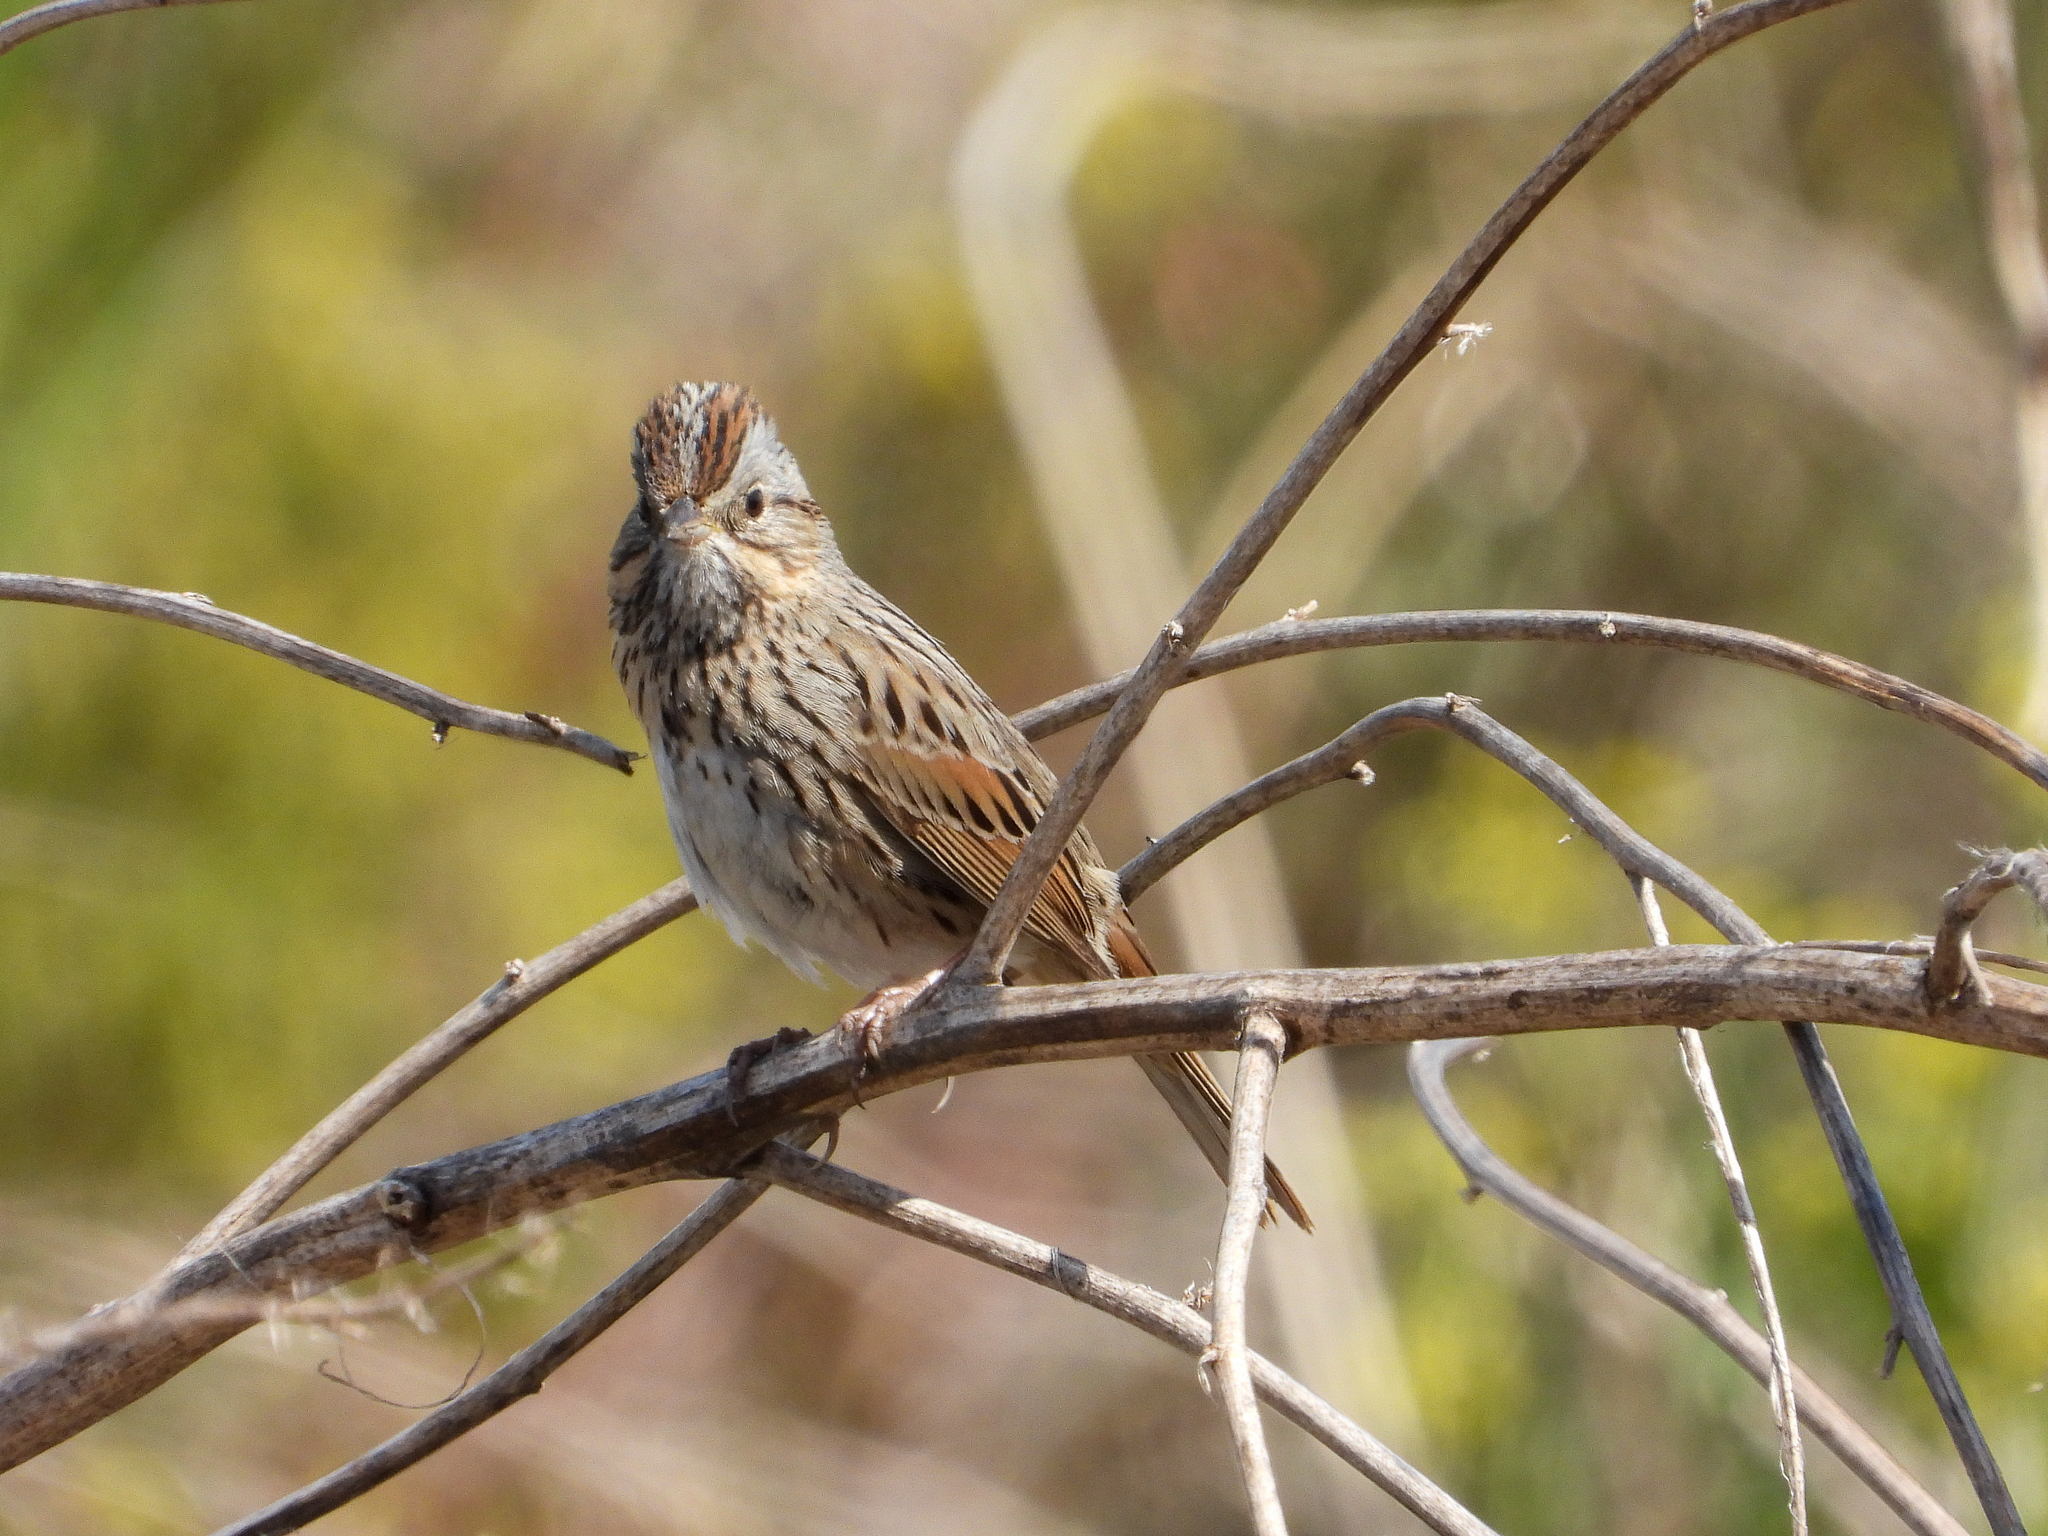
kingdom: Animalia
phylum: Chordata
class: Aves
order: Passeriformes
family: Passerellidae
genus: Melospiza
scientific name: Melospiza lincolnii
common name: Lincoln's sparrow
